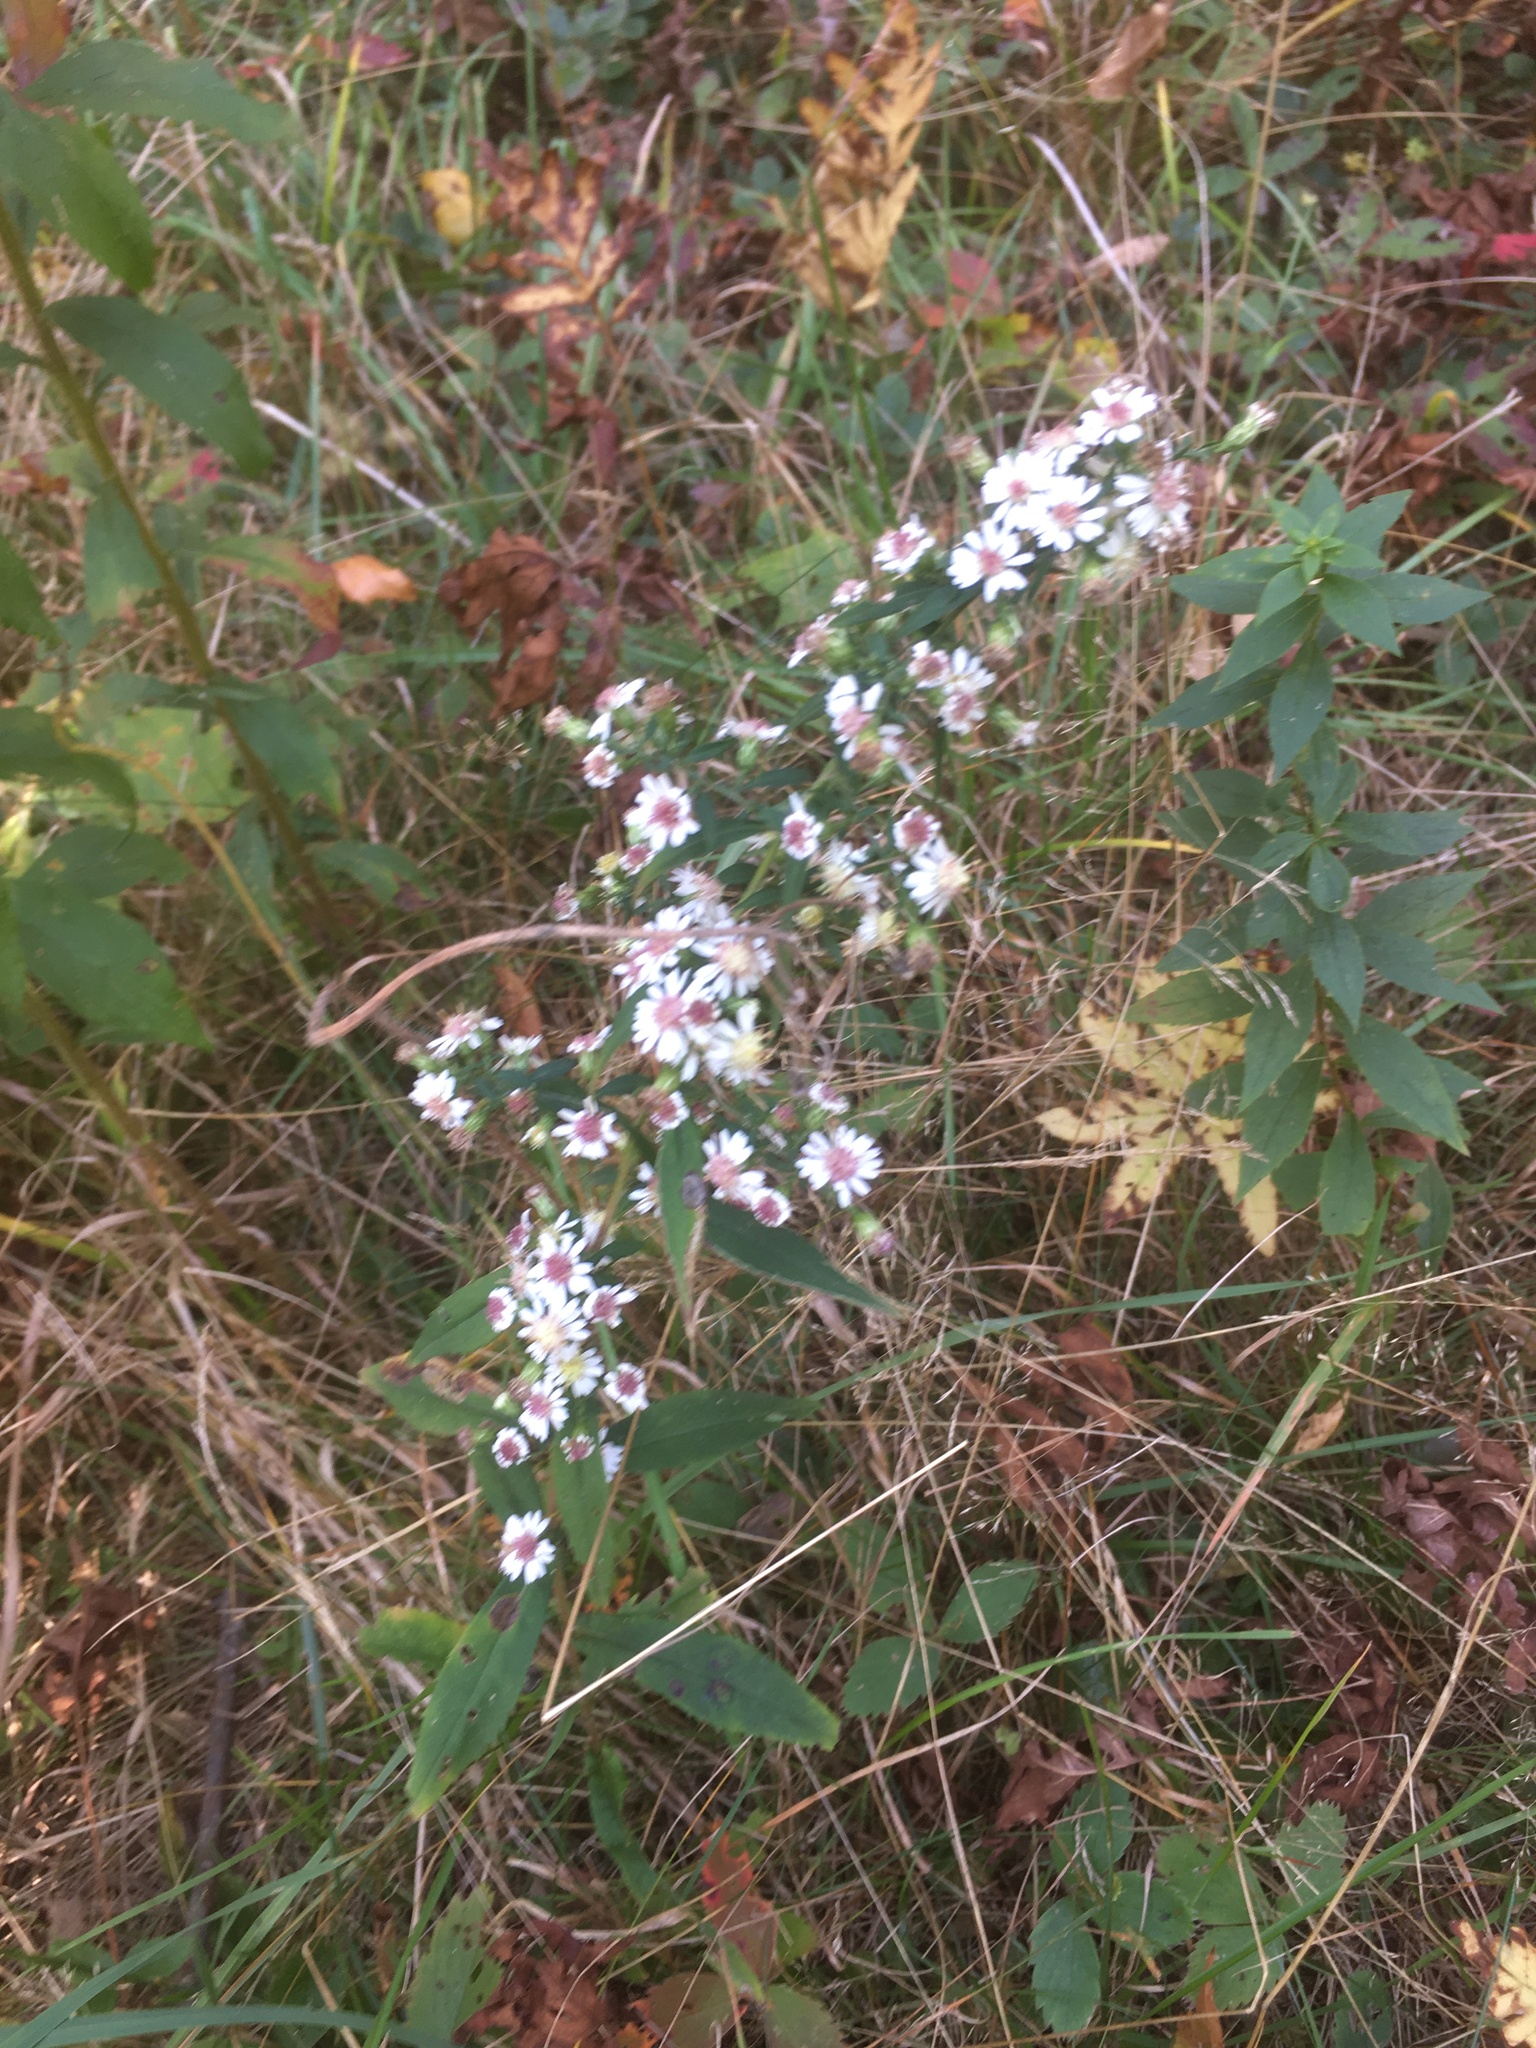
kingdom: Plantae
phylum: Tracheophyta
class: Magnoliopsida
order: Asterales
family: Asteraceae
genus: Symphyotrichum
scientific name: Symphyotrichum lateriflorum
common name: Calico aster
